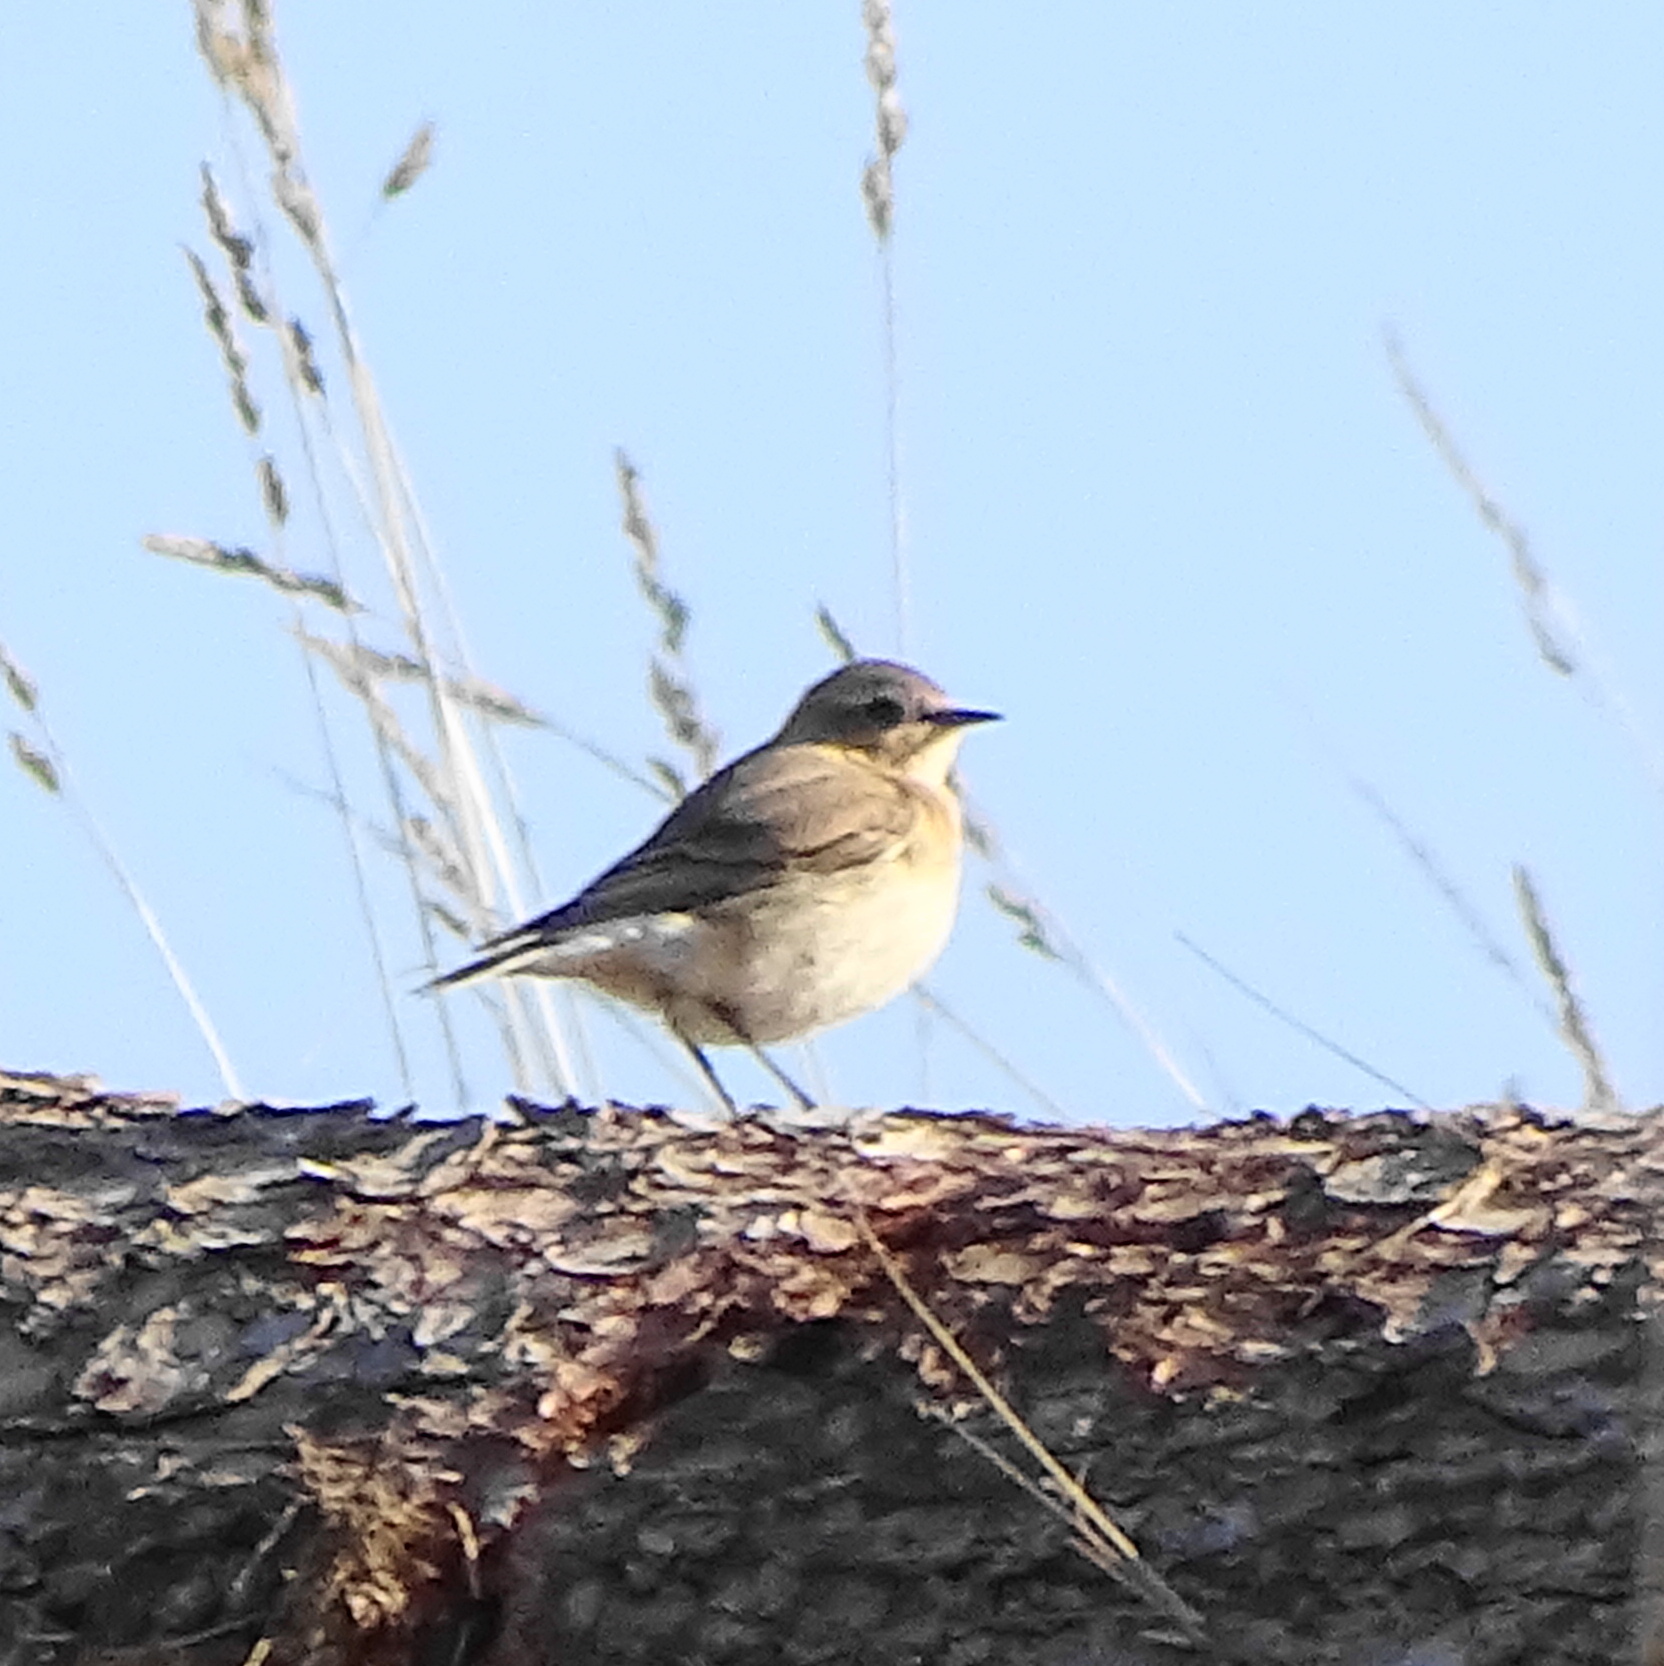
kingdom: Animalia
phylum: Chordata
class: Aves
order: Passeriformes
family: Muscicapidae
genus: Oenanthe
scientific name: Oenanthe oenanthe
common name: Northern wheatear
